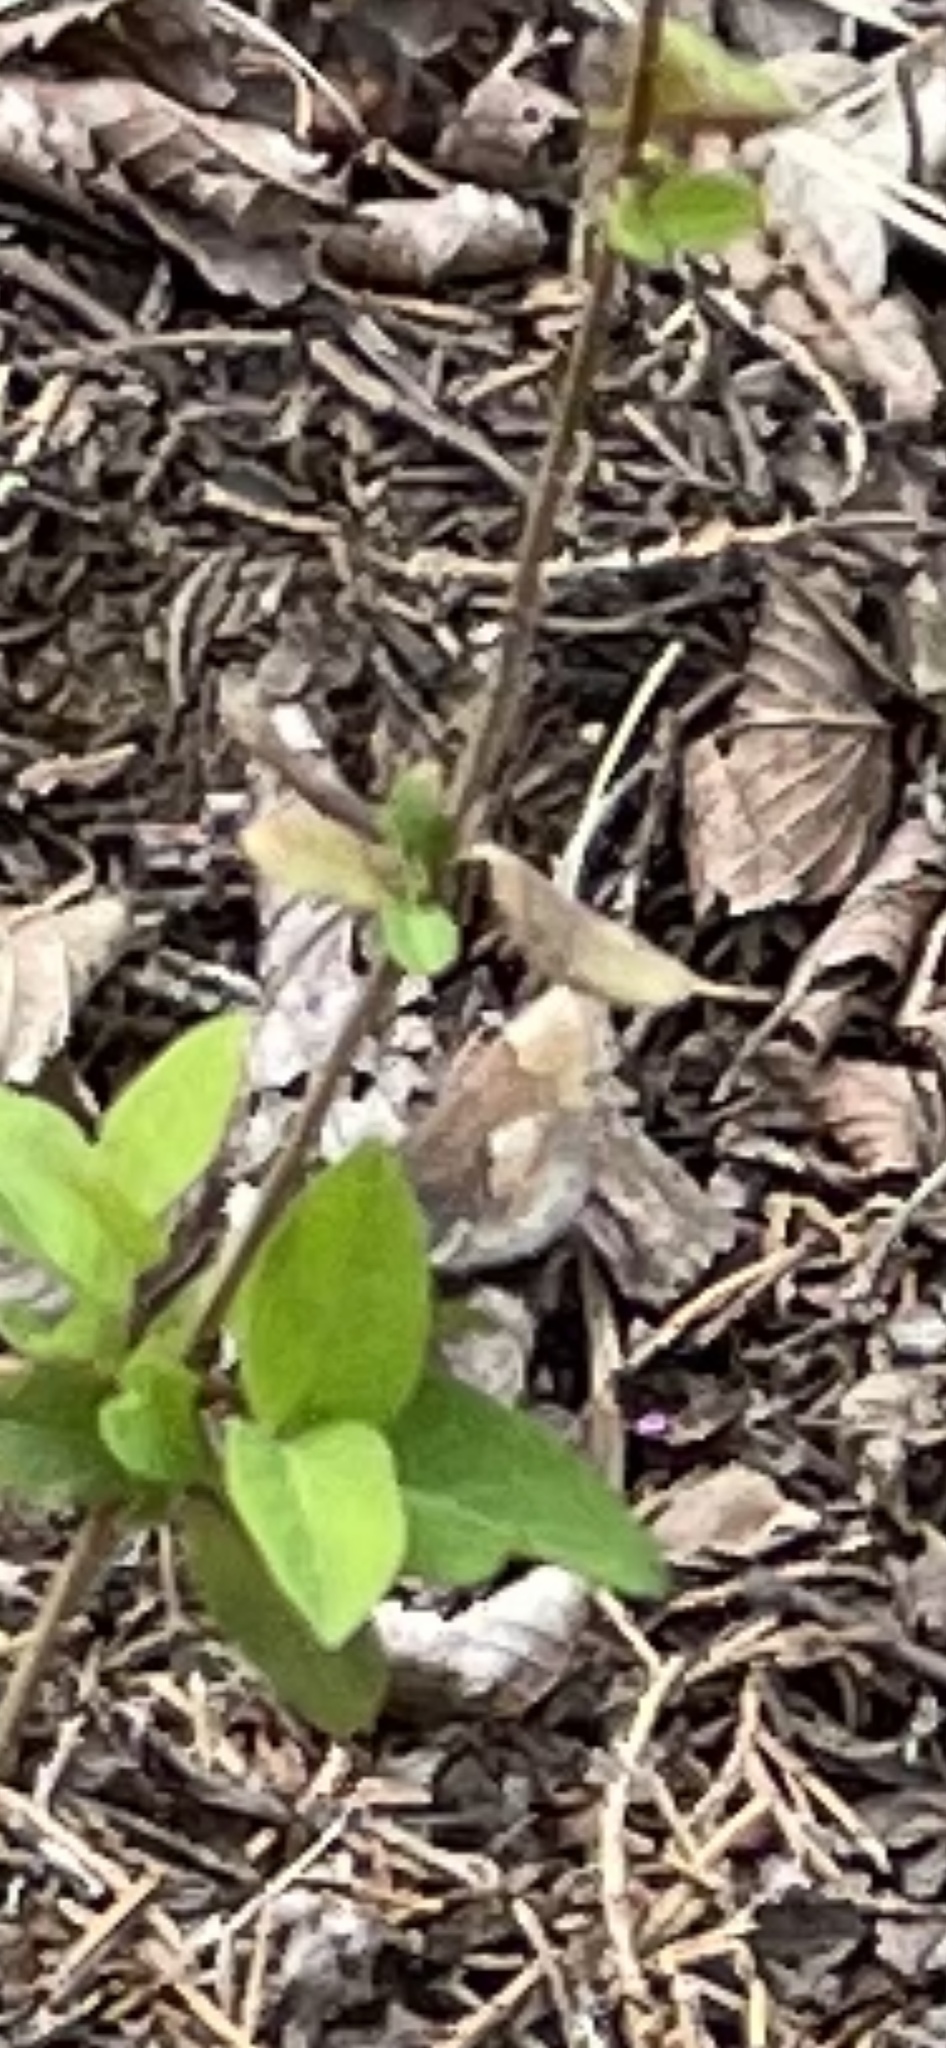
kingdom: Animalia
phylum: Arthropoda
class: Insecta
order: Lepidoptera
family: Lycaenidae
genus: Incisalia
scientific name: Incisalia henrici
